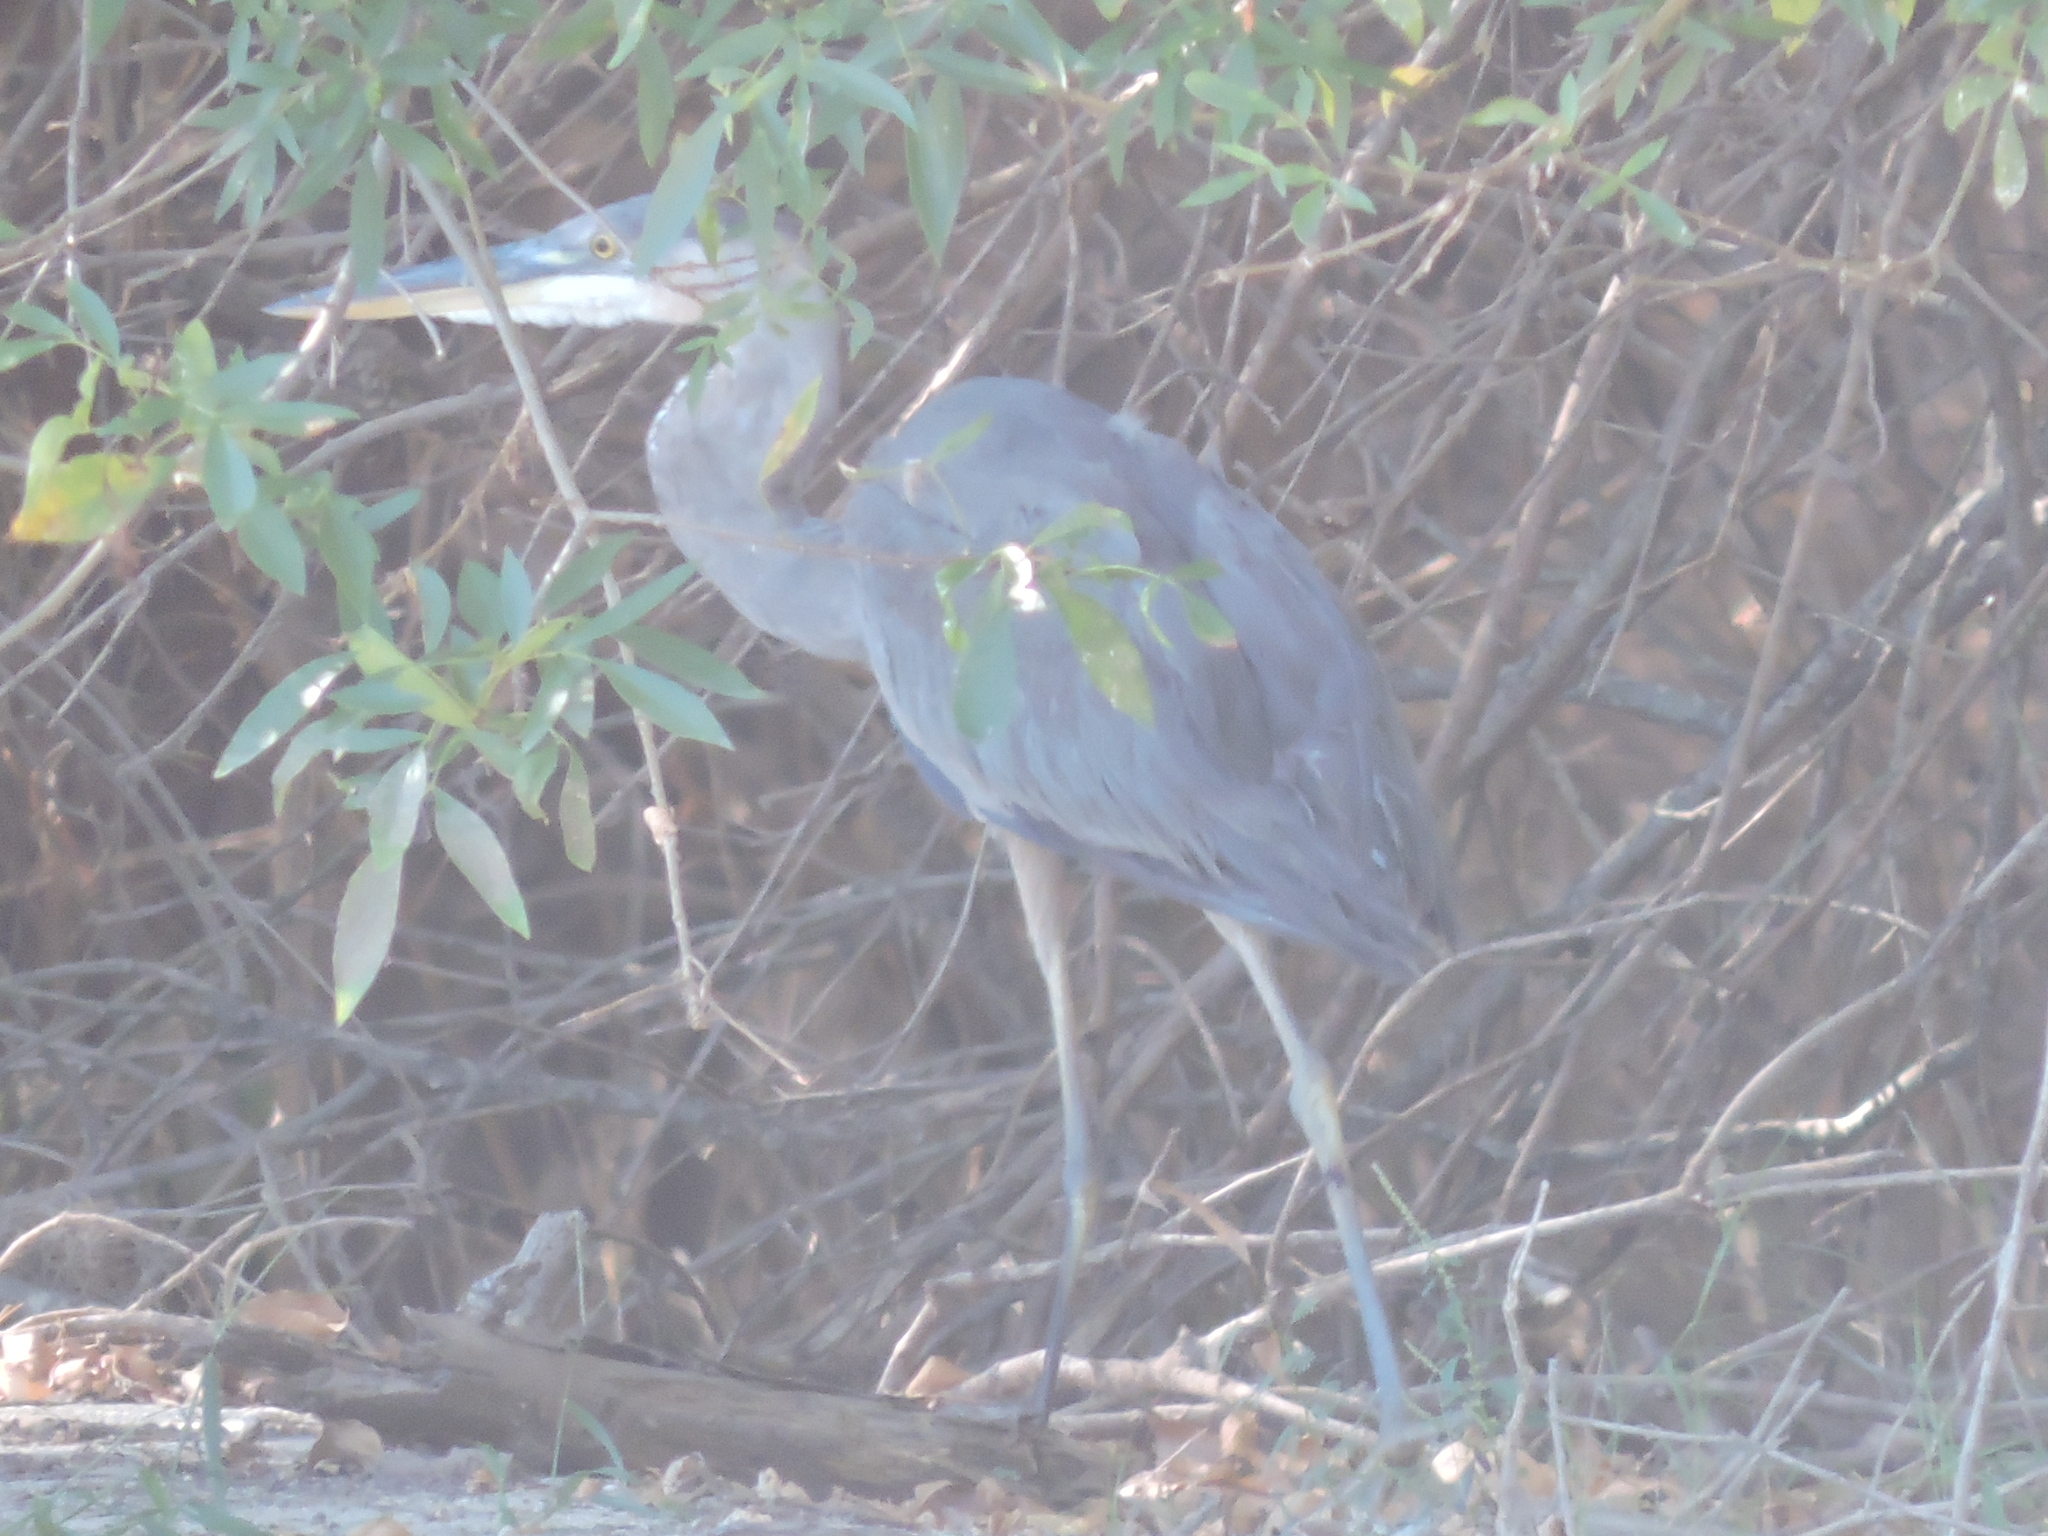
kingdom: Animalia
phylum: Chordata
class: Aves
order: Pelecaniformes
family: Ardeidae
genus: Ardea
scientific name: Ardea herodias
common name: Great blue heron
